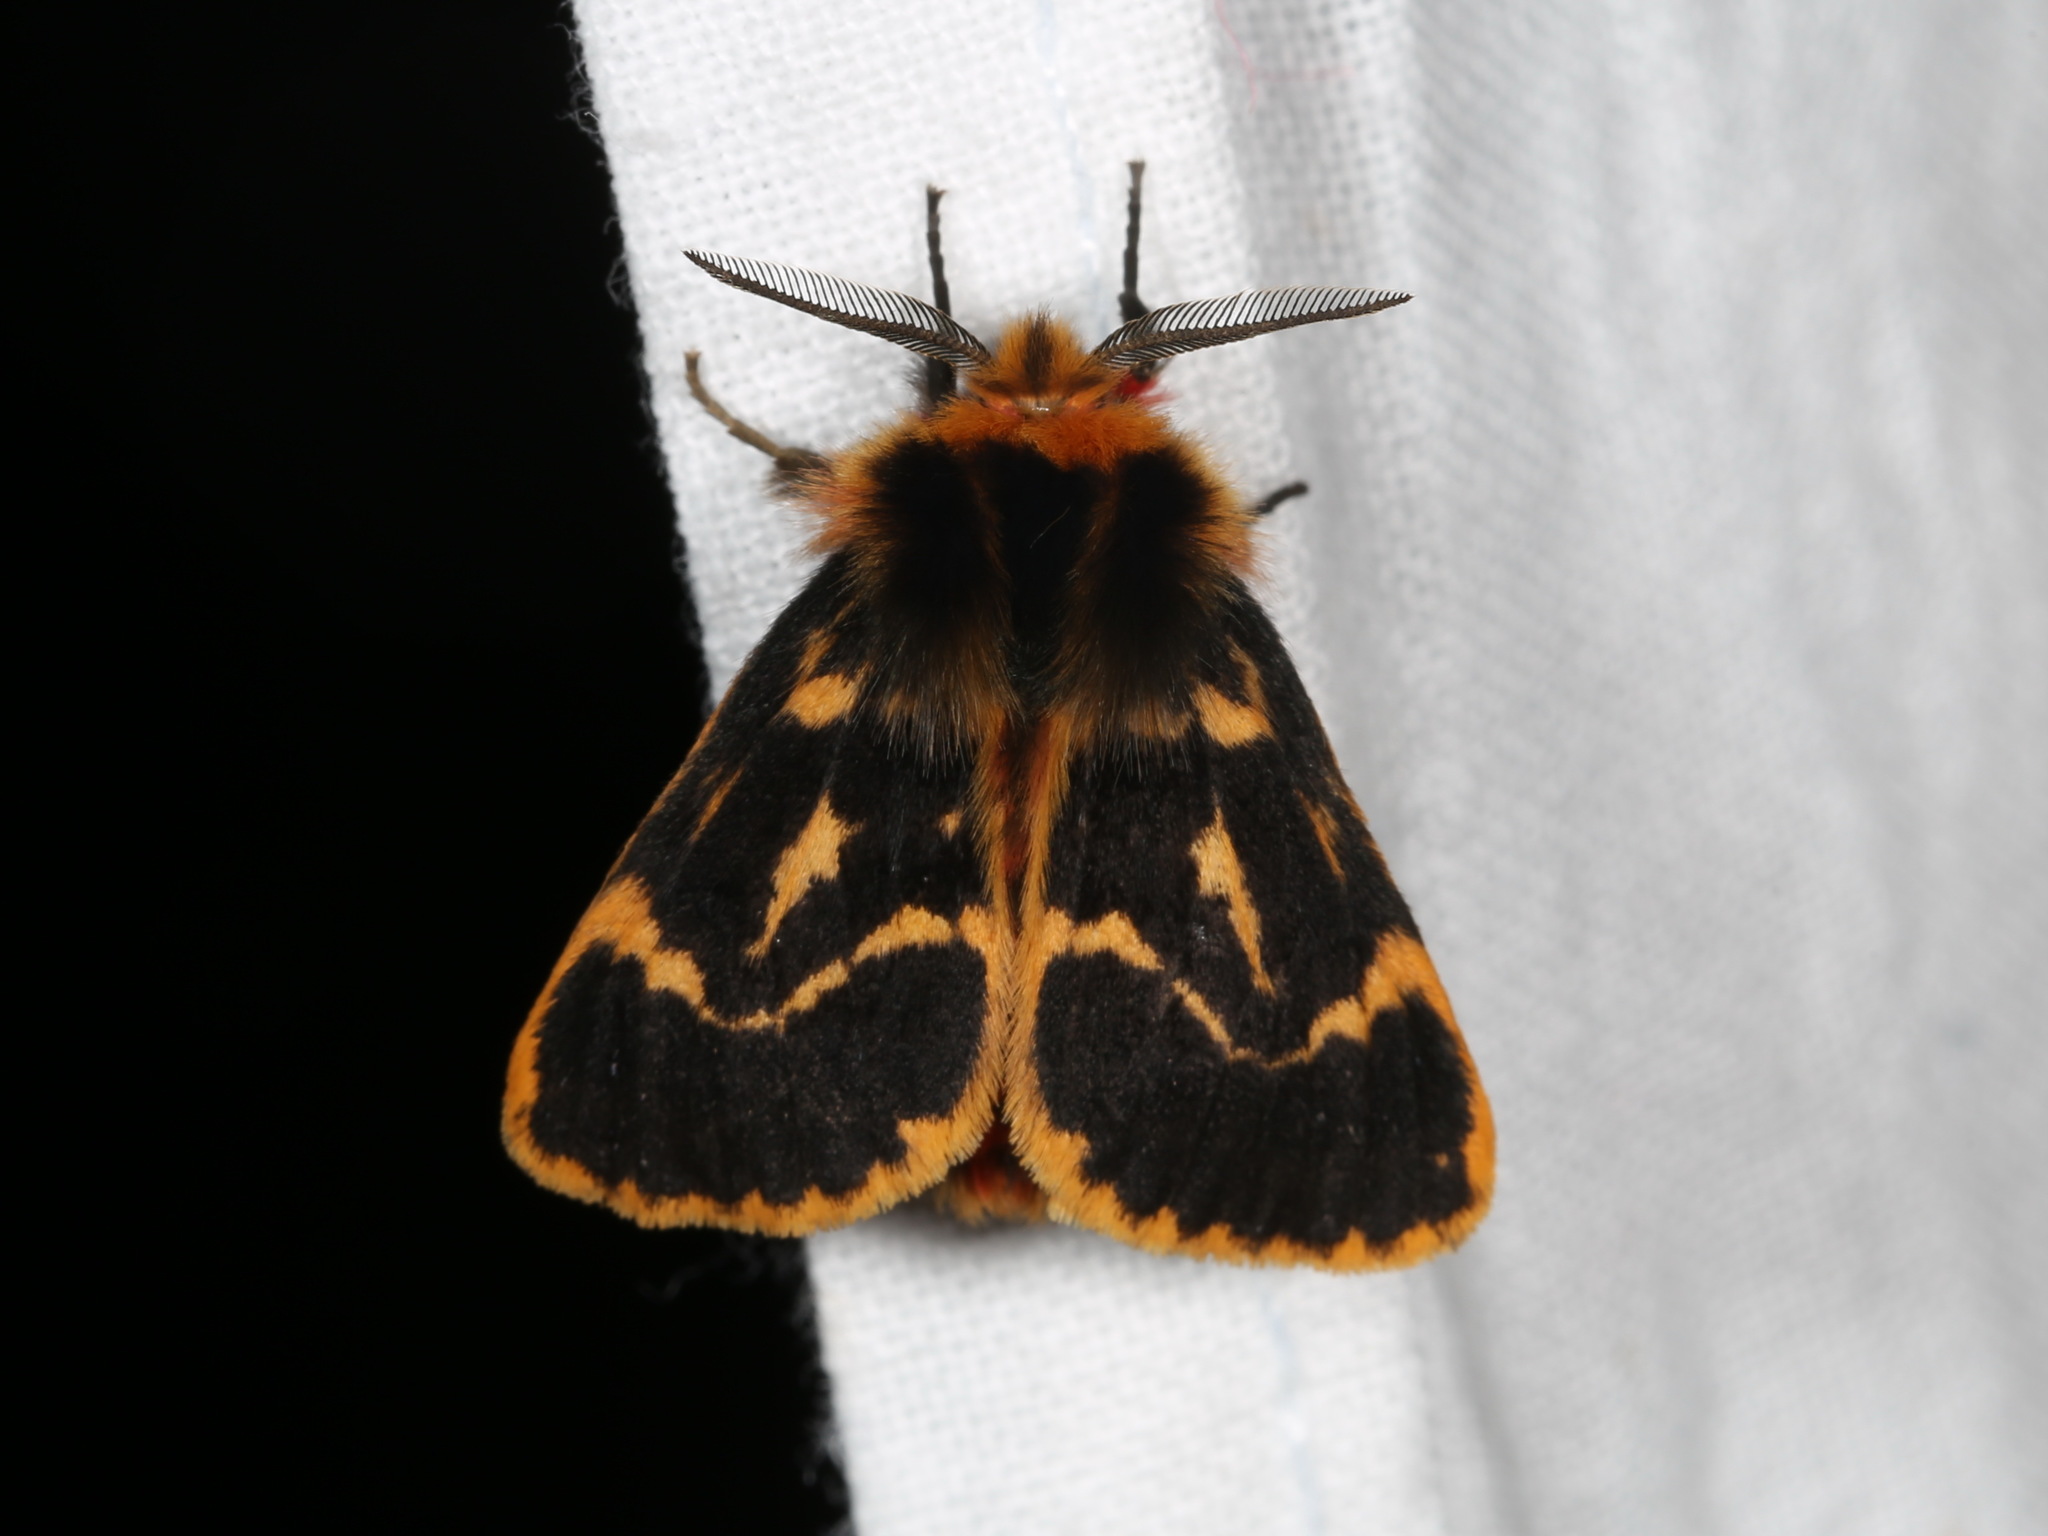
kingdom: Animalia
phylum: Arthropoda
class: Insecta
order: Lepidoptera
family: Erebidae
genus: Ardices
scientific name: Ardices curvata
